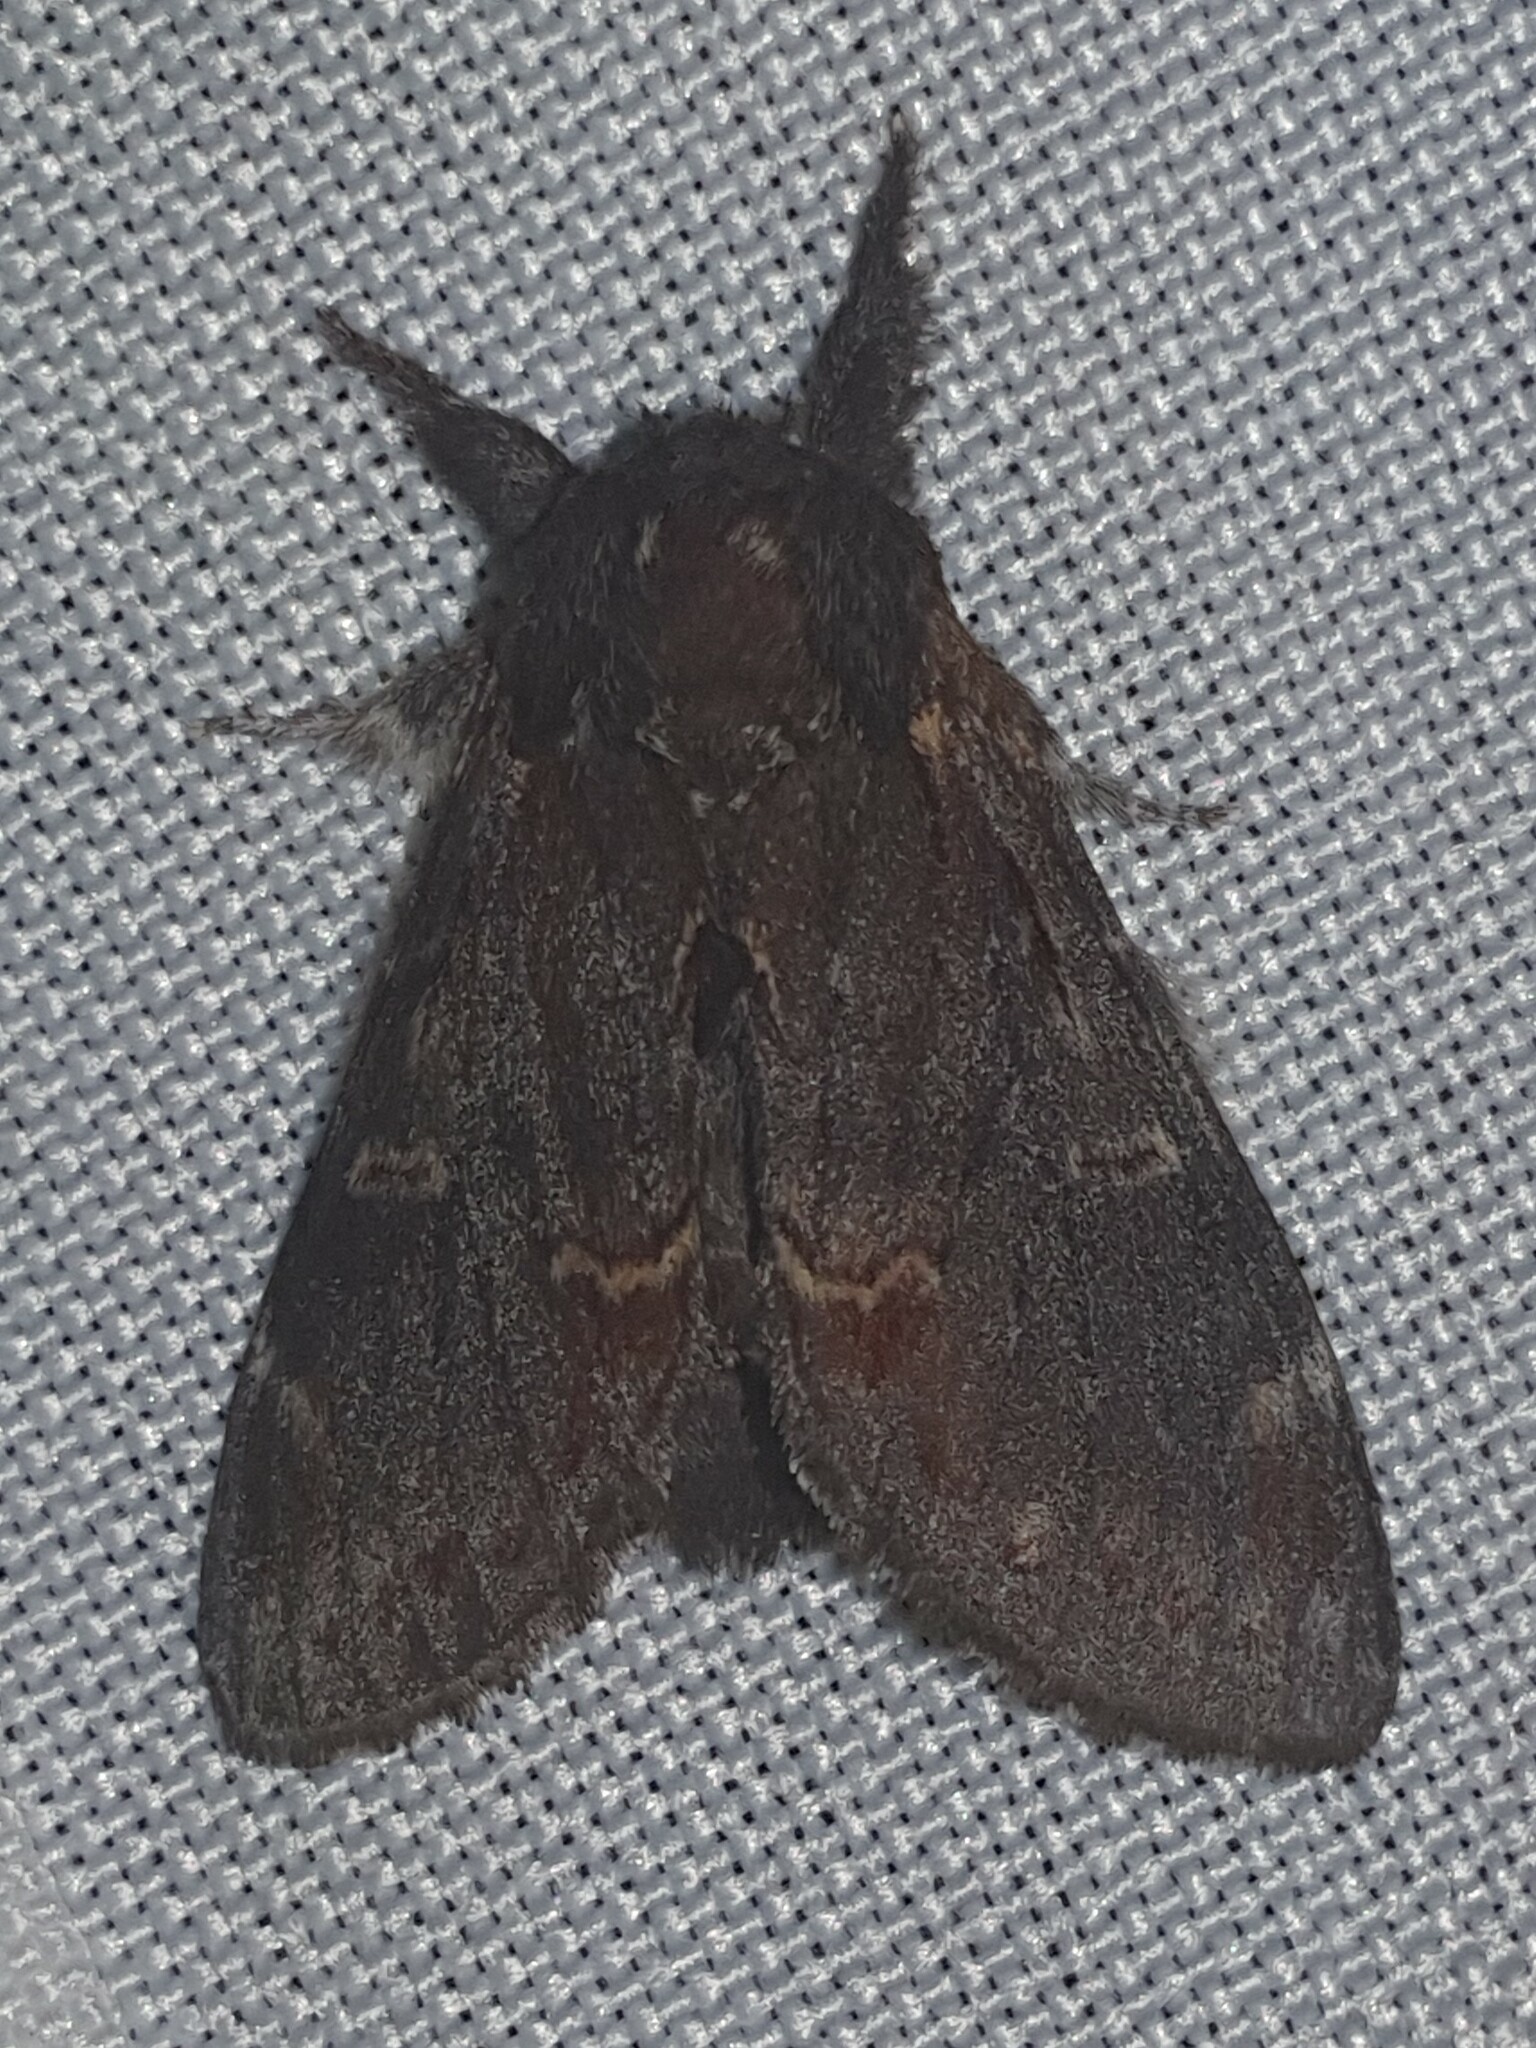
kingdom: Animalia
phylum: Arthropoda
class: Insecta
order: Lepidoptera
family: Notodontidae
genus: Notodonta
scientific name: Notodonta dromedarius
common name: Iron prominent
